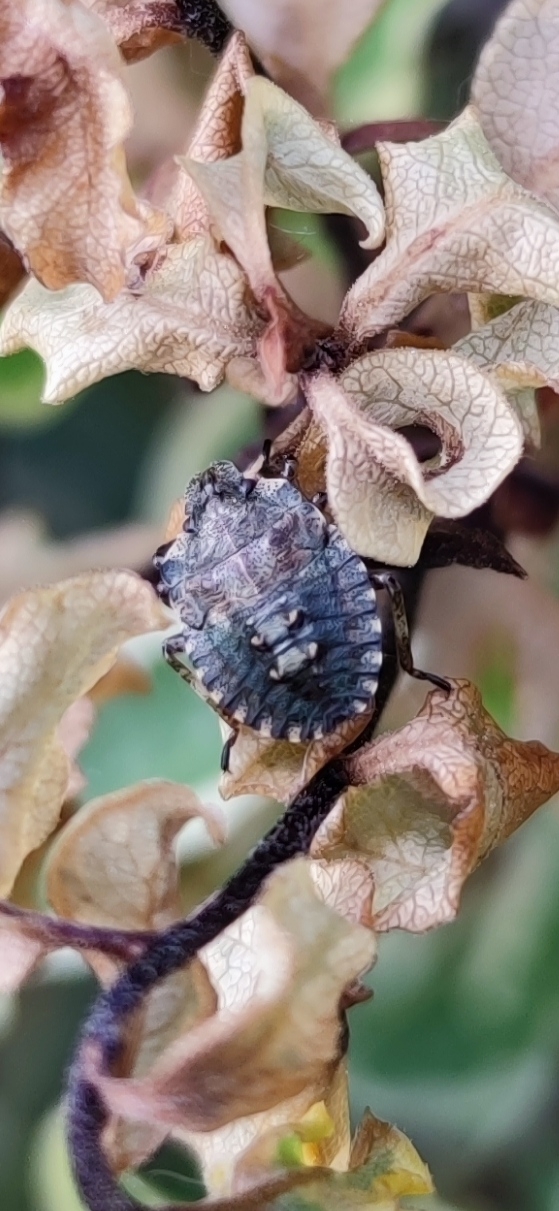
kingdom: Animalia
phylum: Arthropoda
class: Insecta
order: Hemiptera
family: Pentatomidae
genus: Pentatoma
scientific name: Pentatoma rufipes
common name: Forest bug
